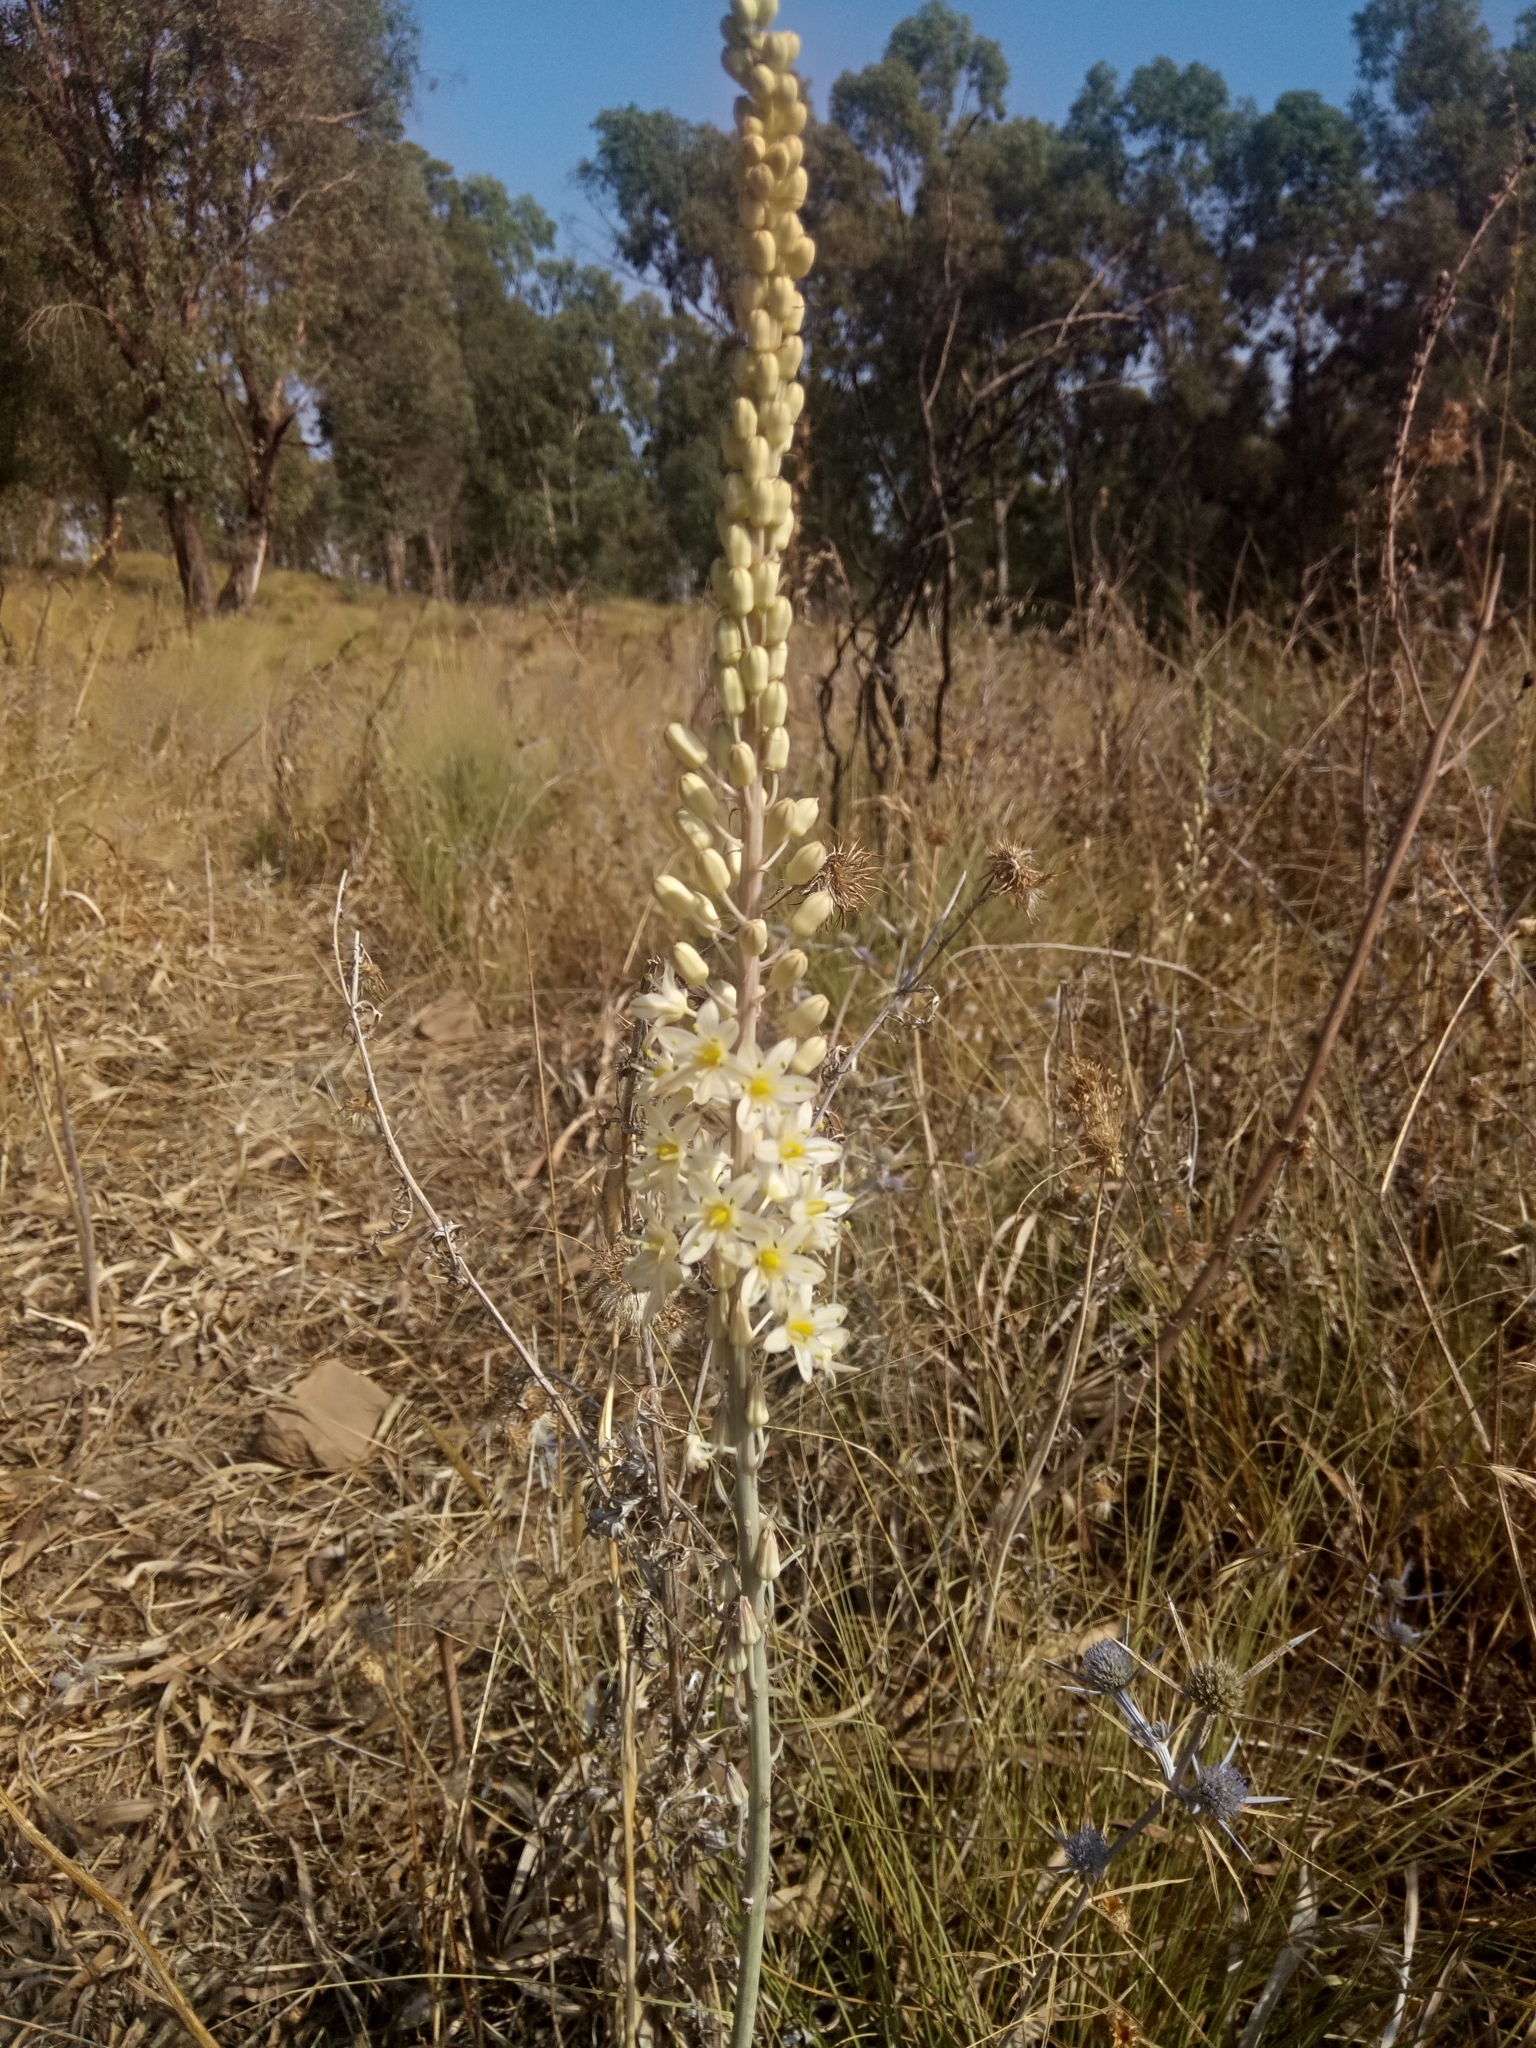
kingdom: Plantae
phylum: Tracheophyta
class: Liliopsida
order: Asparagales
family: Asparagaceae
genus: Drimia
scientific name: Drimia anthericoides
